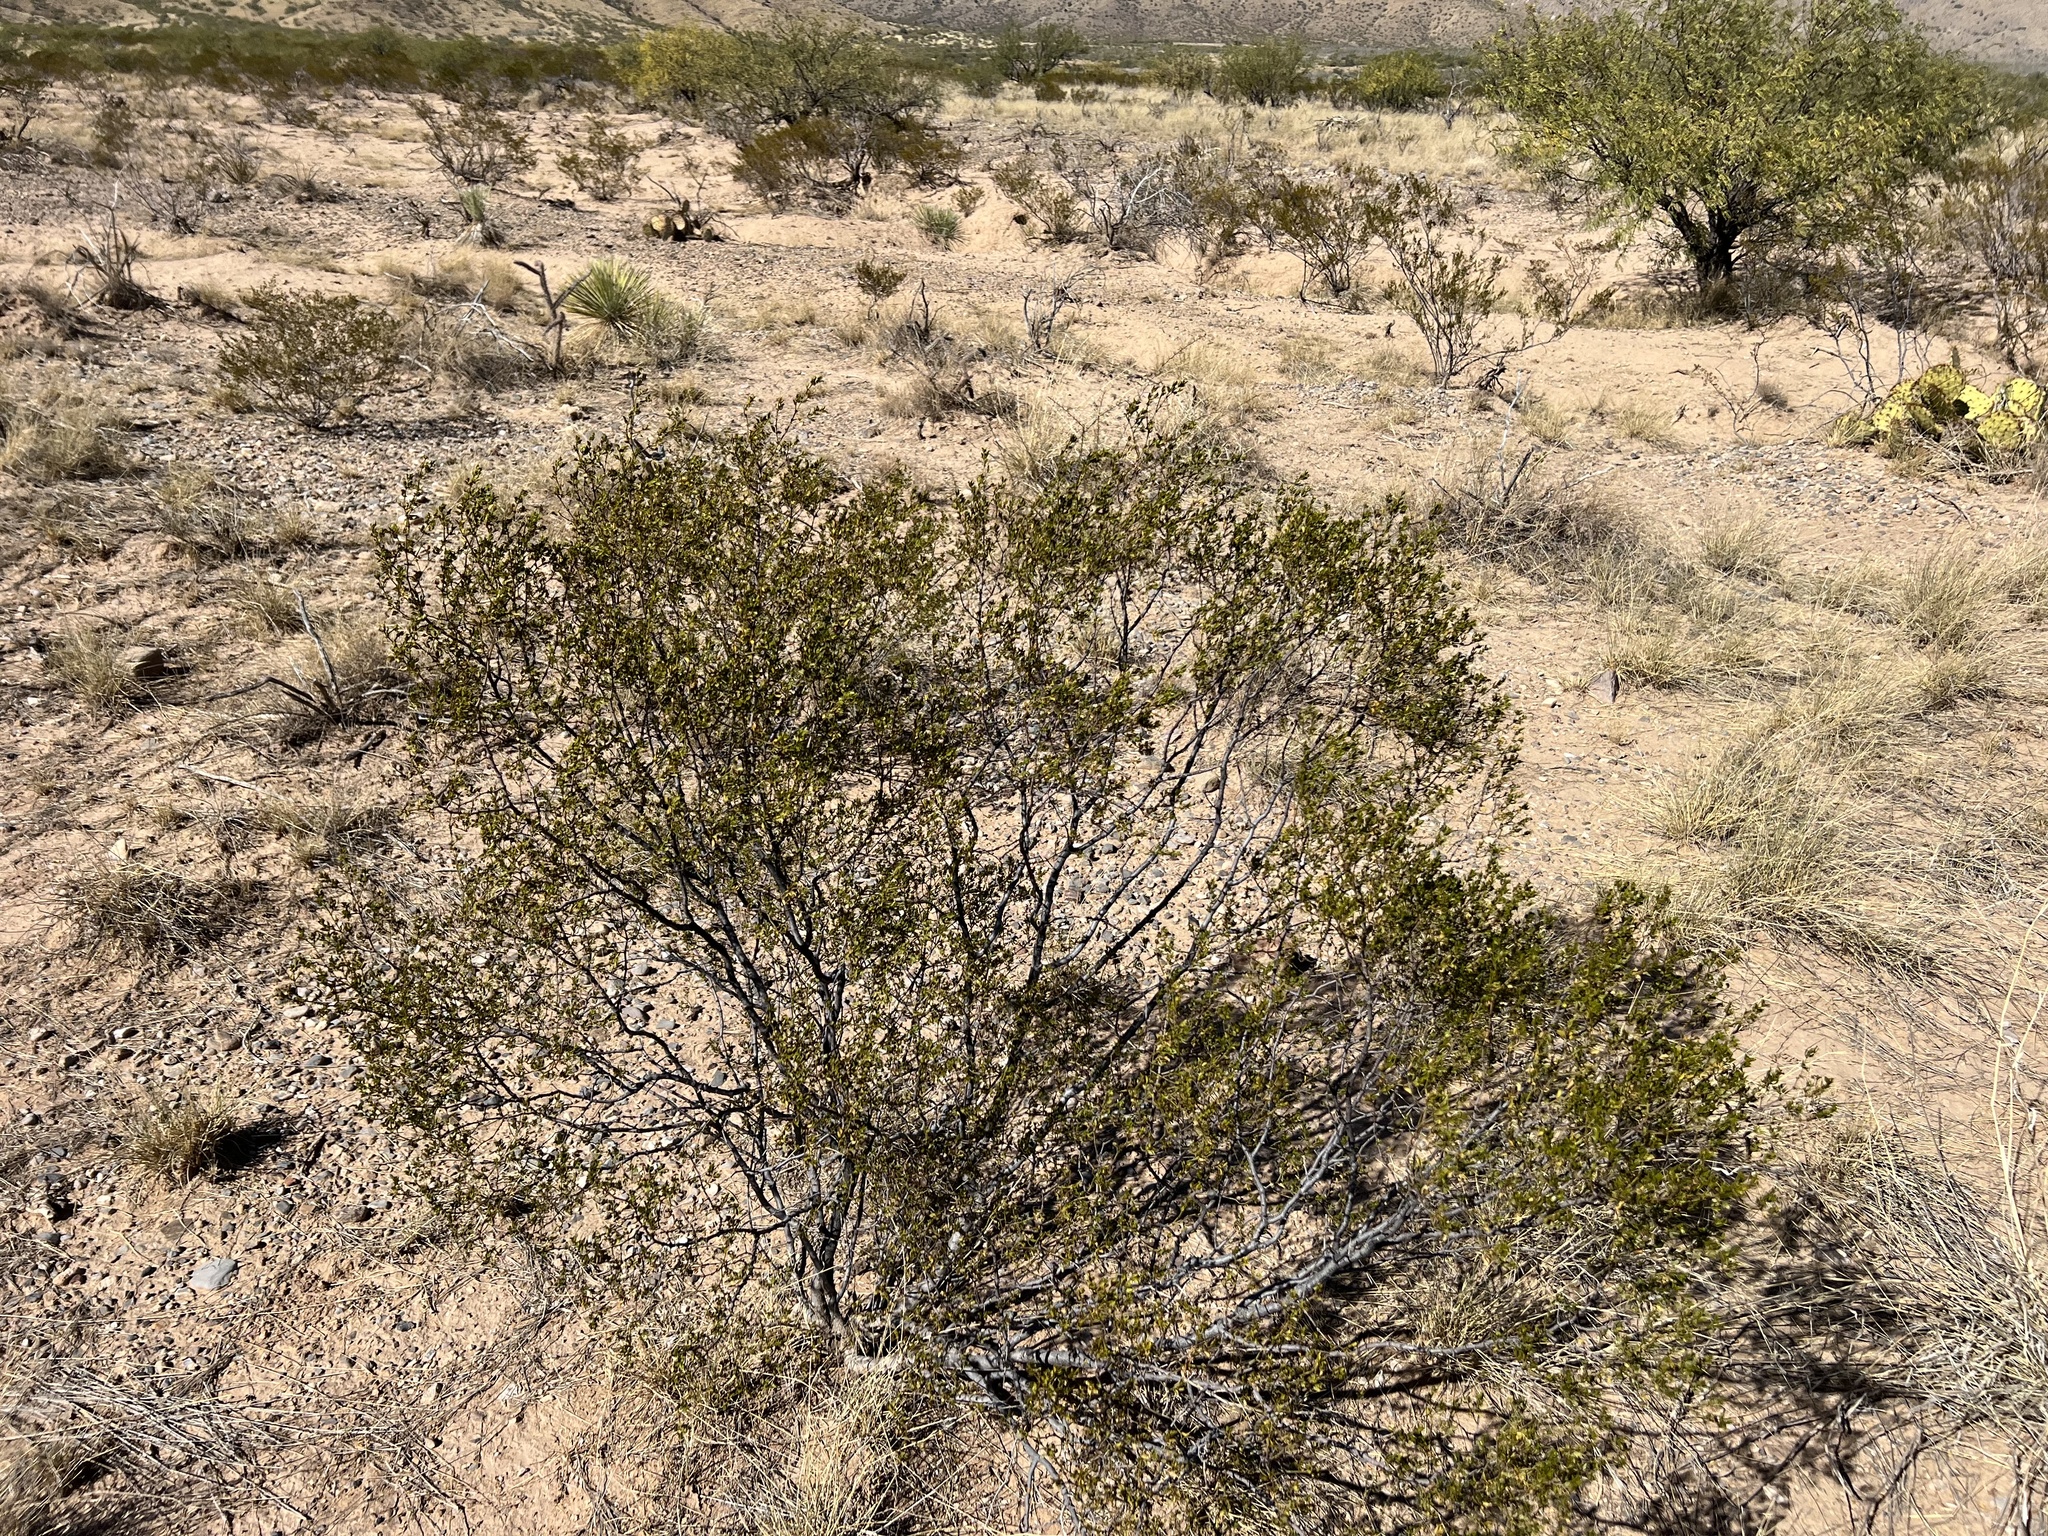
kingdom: Plantae
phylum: Tracheophyta
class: Magnoliopsida
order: Zygophyllales
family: Zygophyllaceae
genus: Larrea
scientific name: Larrea tridentata
